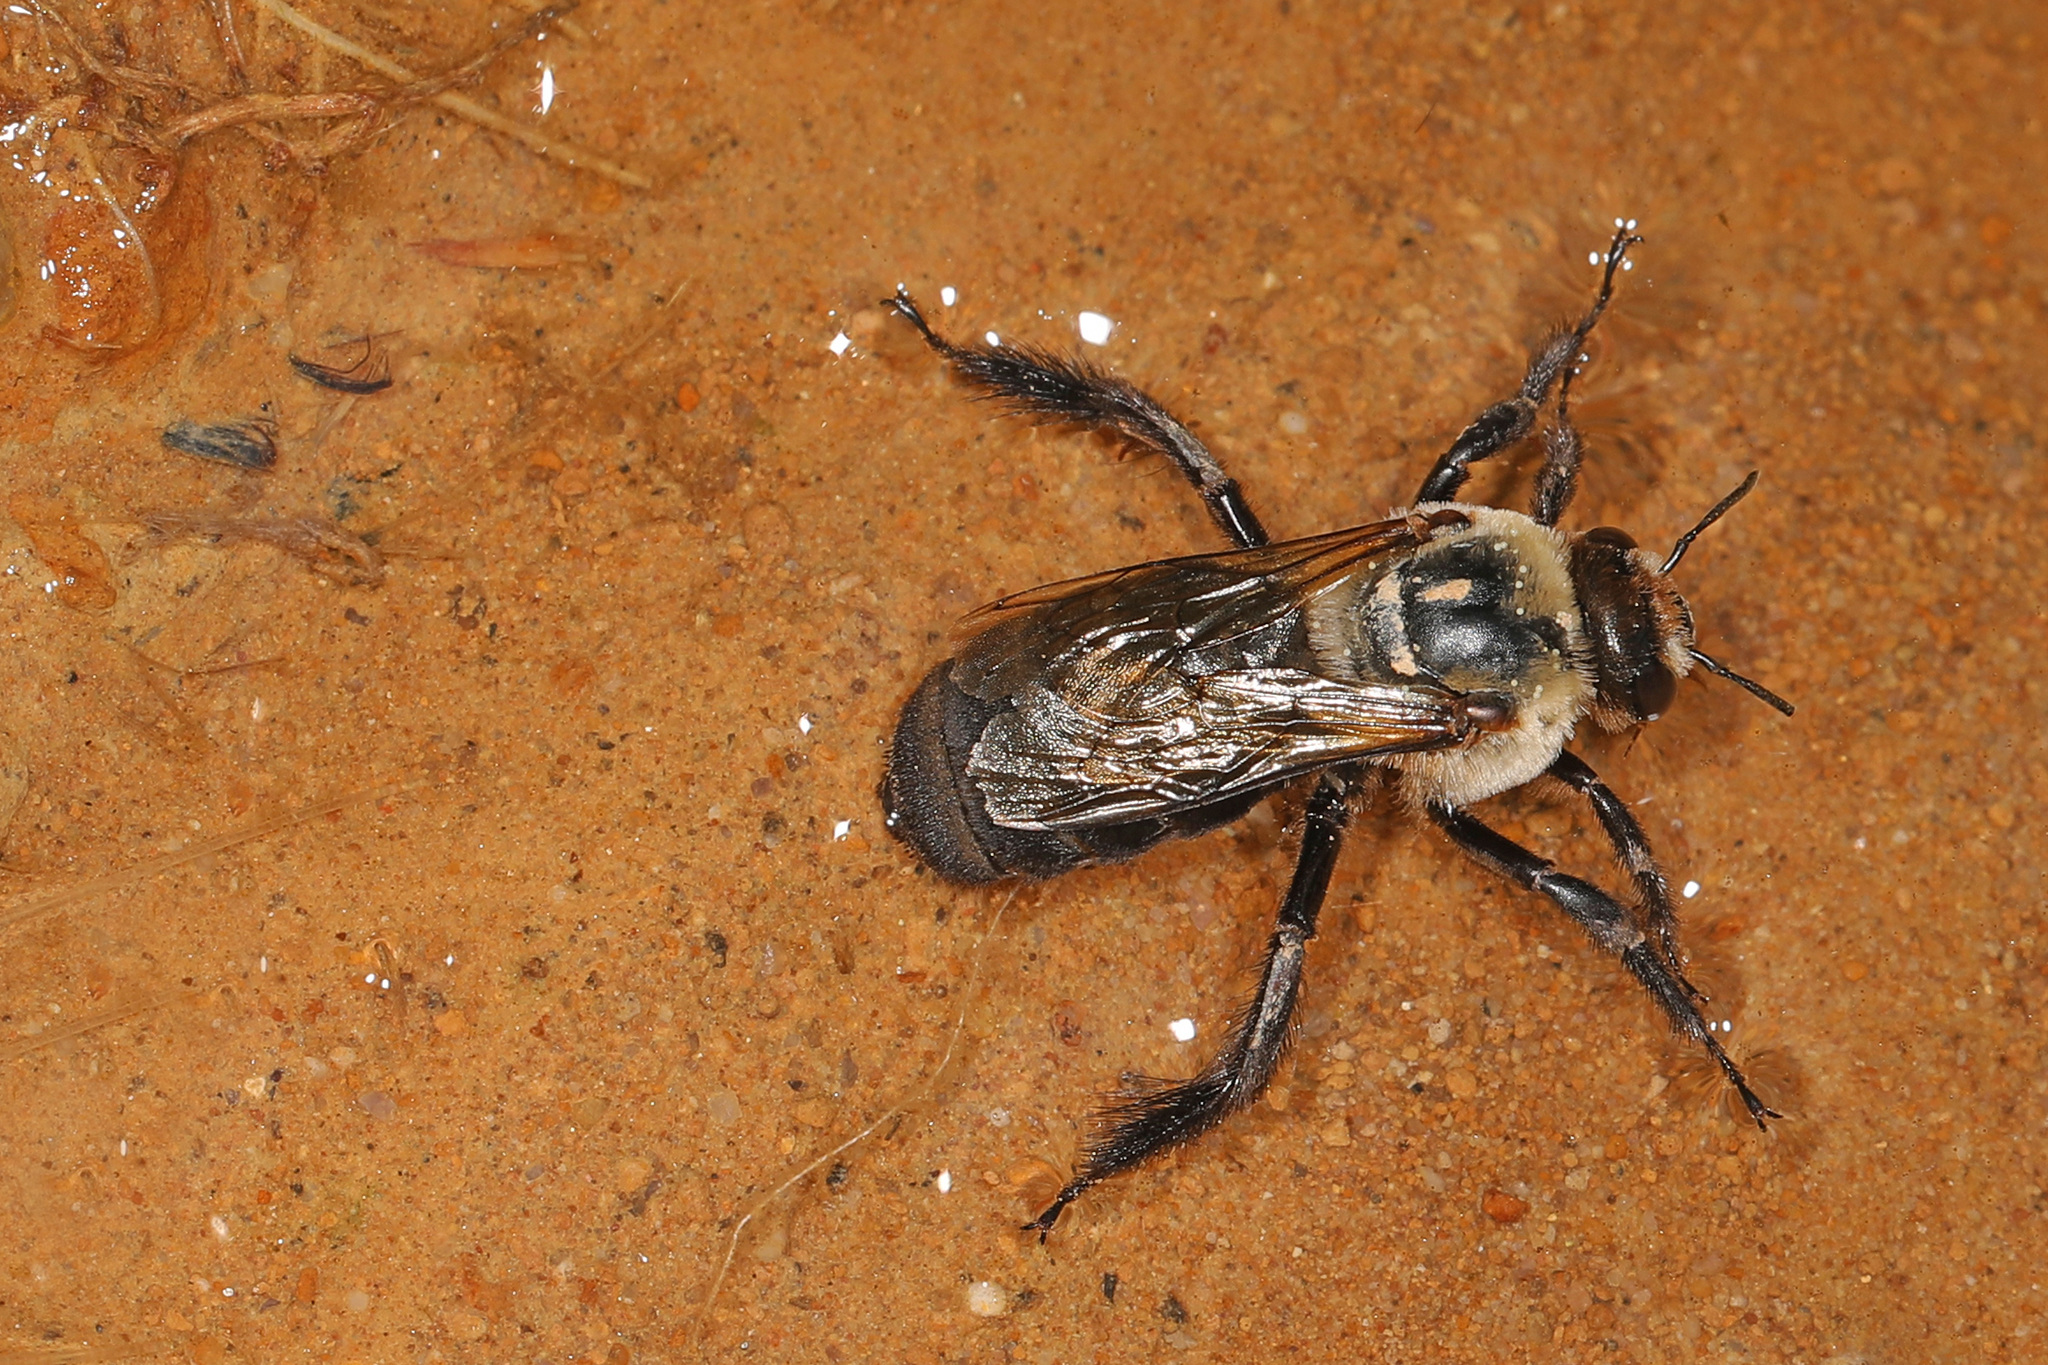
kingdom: Animalia
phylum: Arthropoda
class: Insecta
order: Hymenoptera
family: Apidae
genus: Ptilothrix
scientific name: Ptilothrix bombiformis
